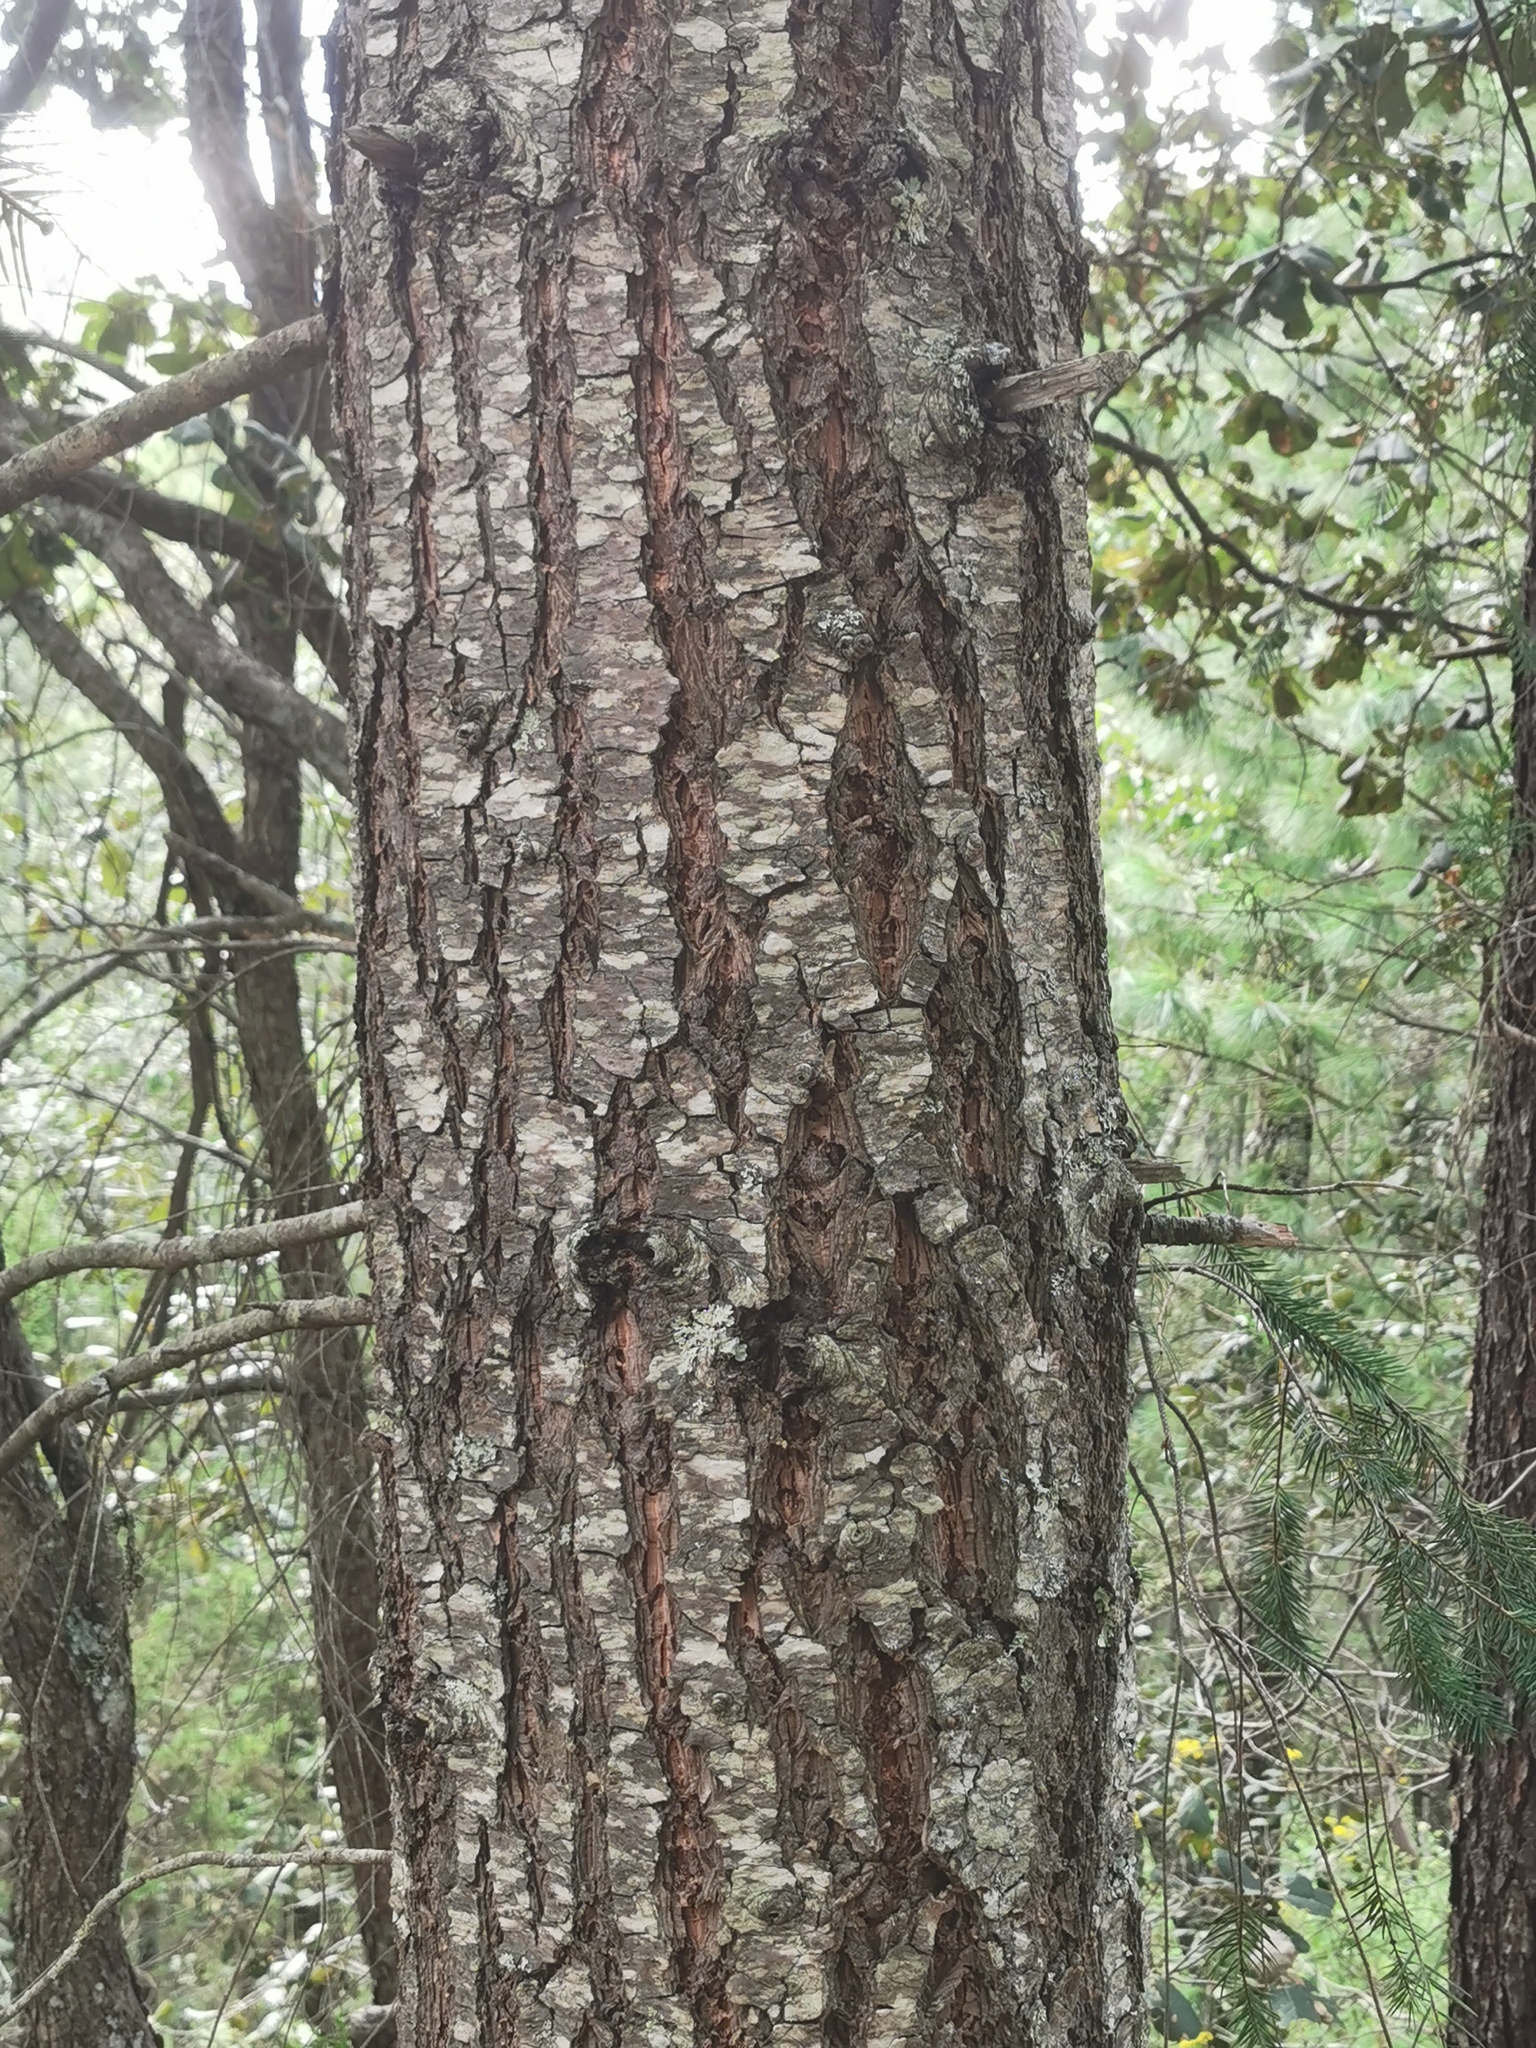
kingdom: Plantae
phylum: Tracheophyta
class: Pinopsida
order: Pinales
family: Pinaceae
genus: Pseudotsuga
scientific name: Pseudotsuga menziesii
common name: Douglas fir
